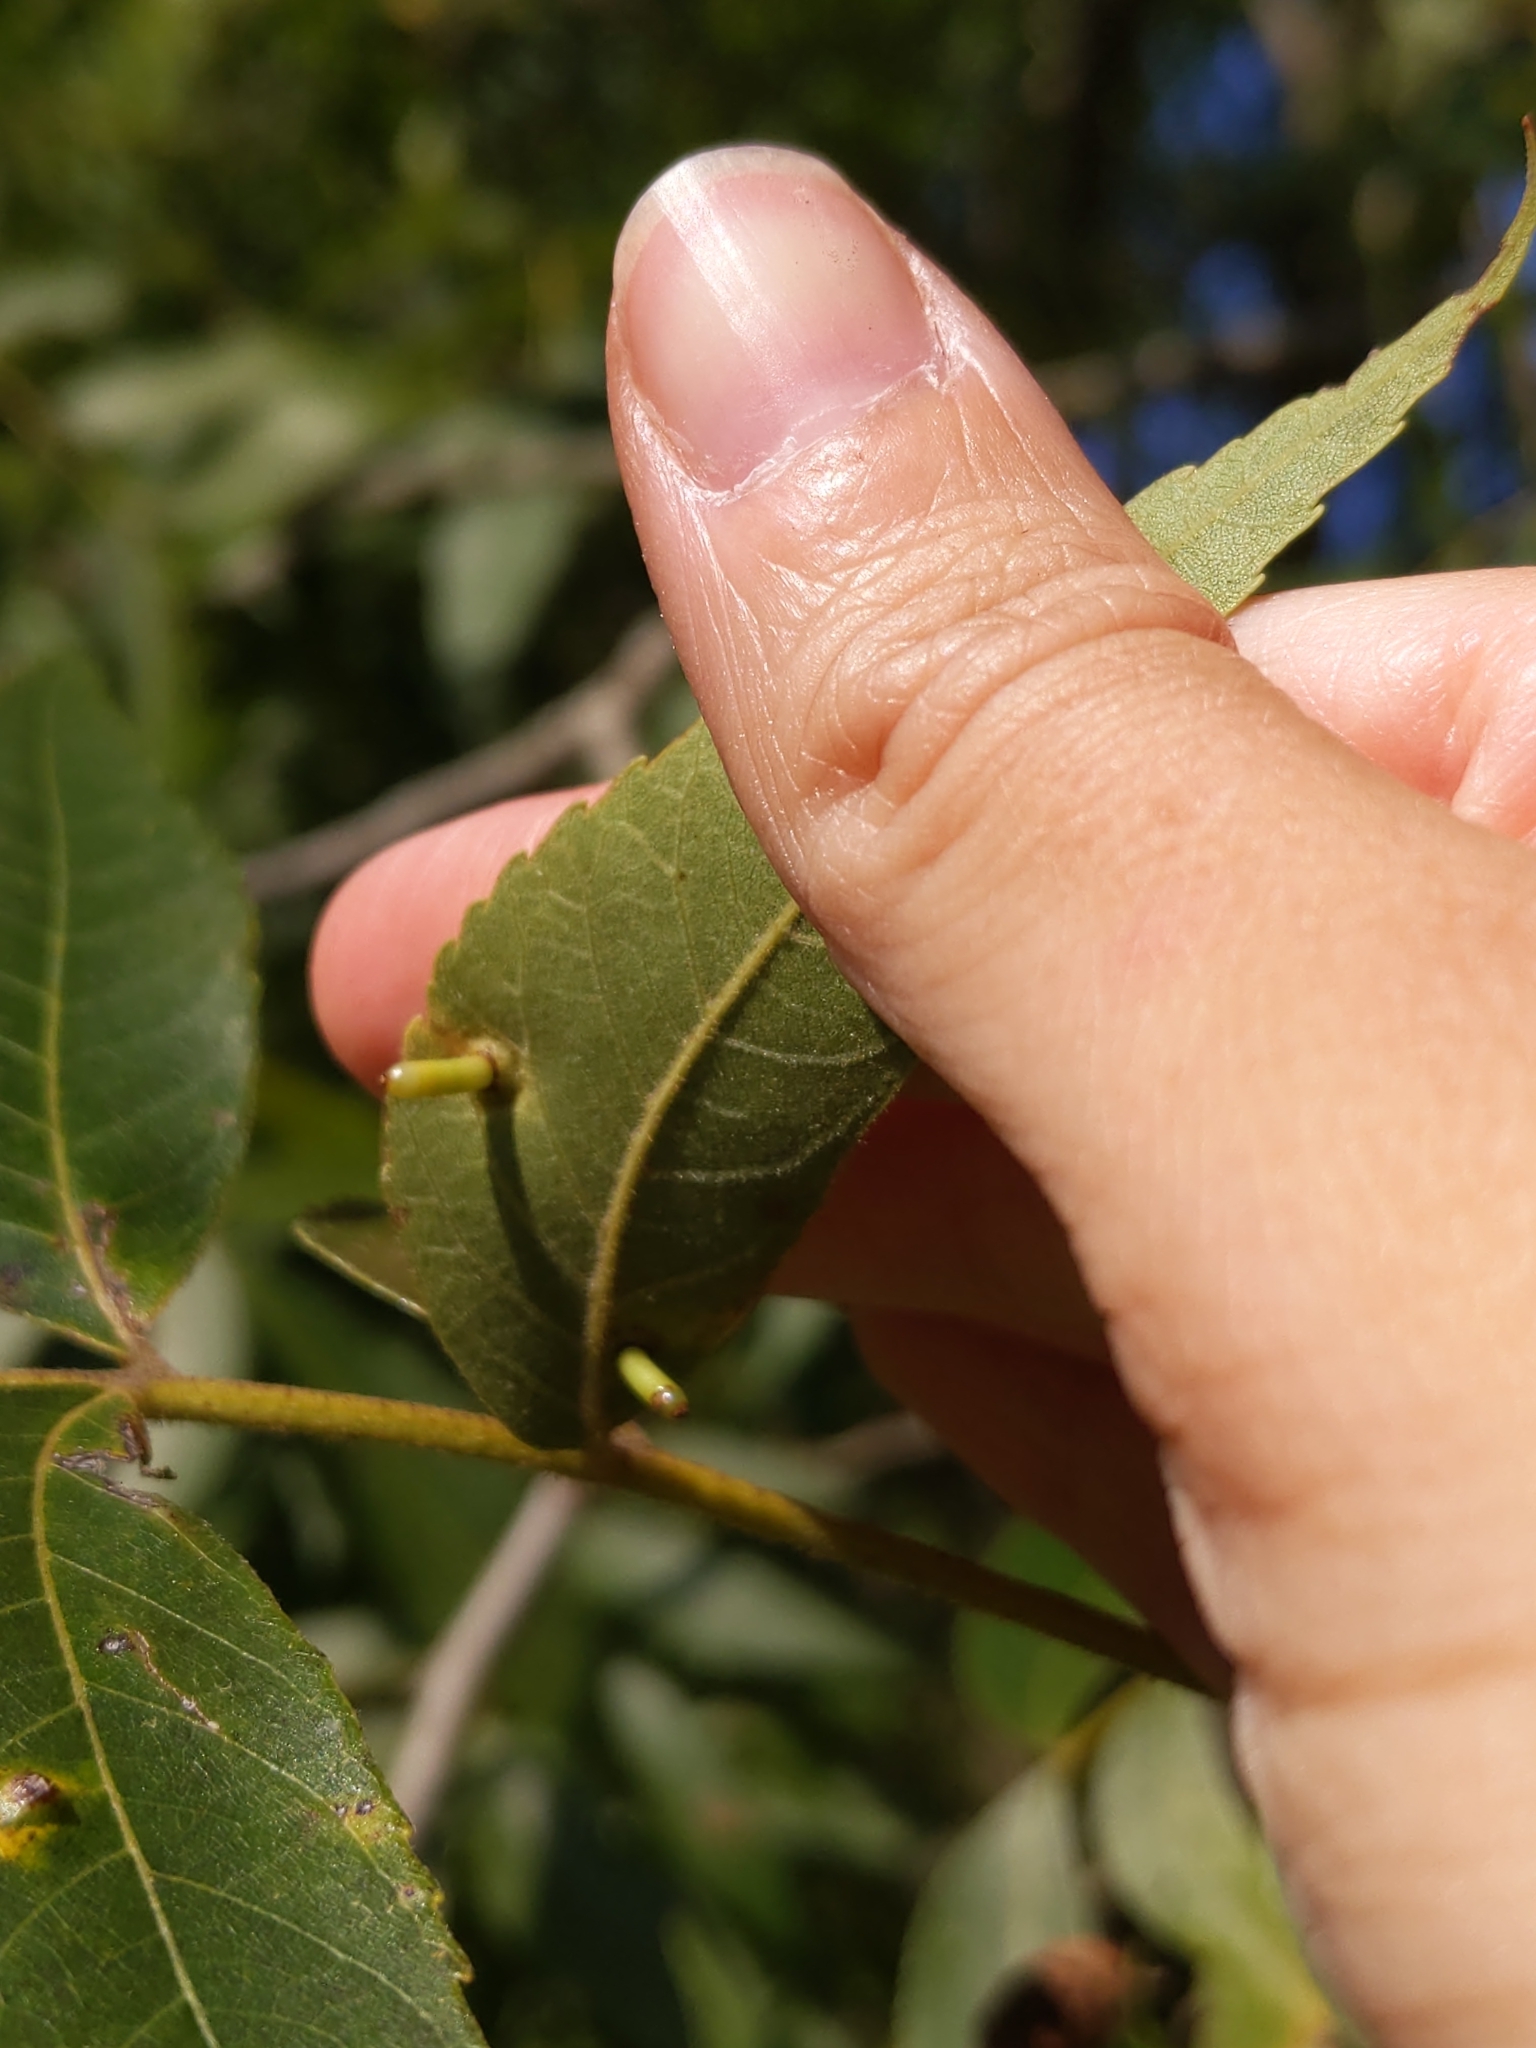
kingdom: Animalia
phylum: Arthropoda
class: Insecta
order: Diptera
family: Cecidomyiidae
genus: Caryomyia
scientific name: Caryomyia tubicola
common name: Hickory bullet gall midge
